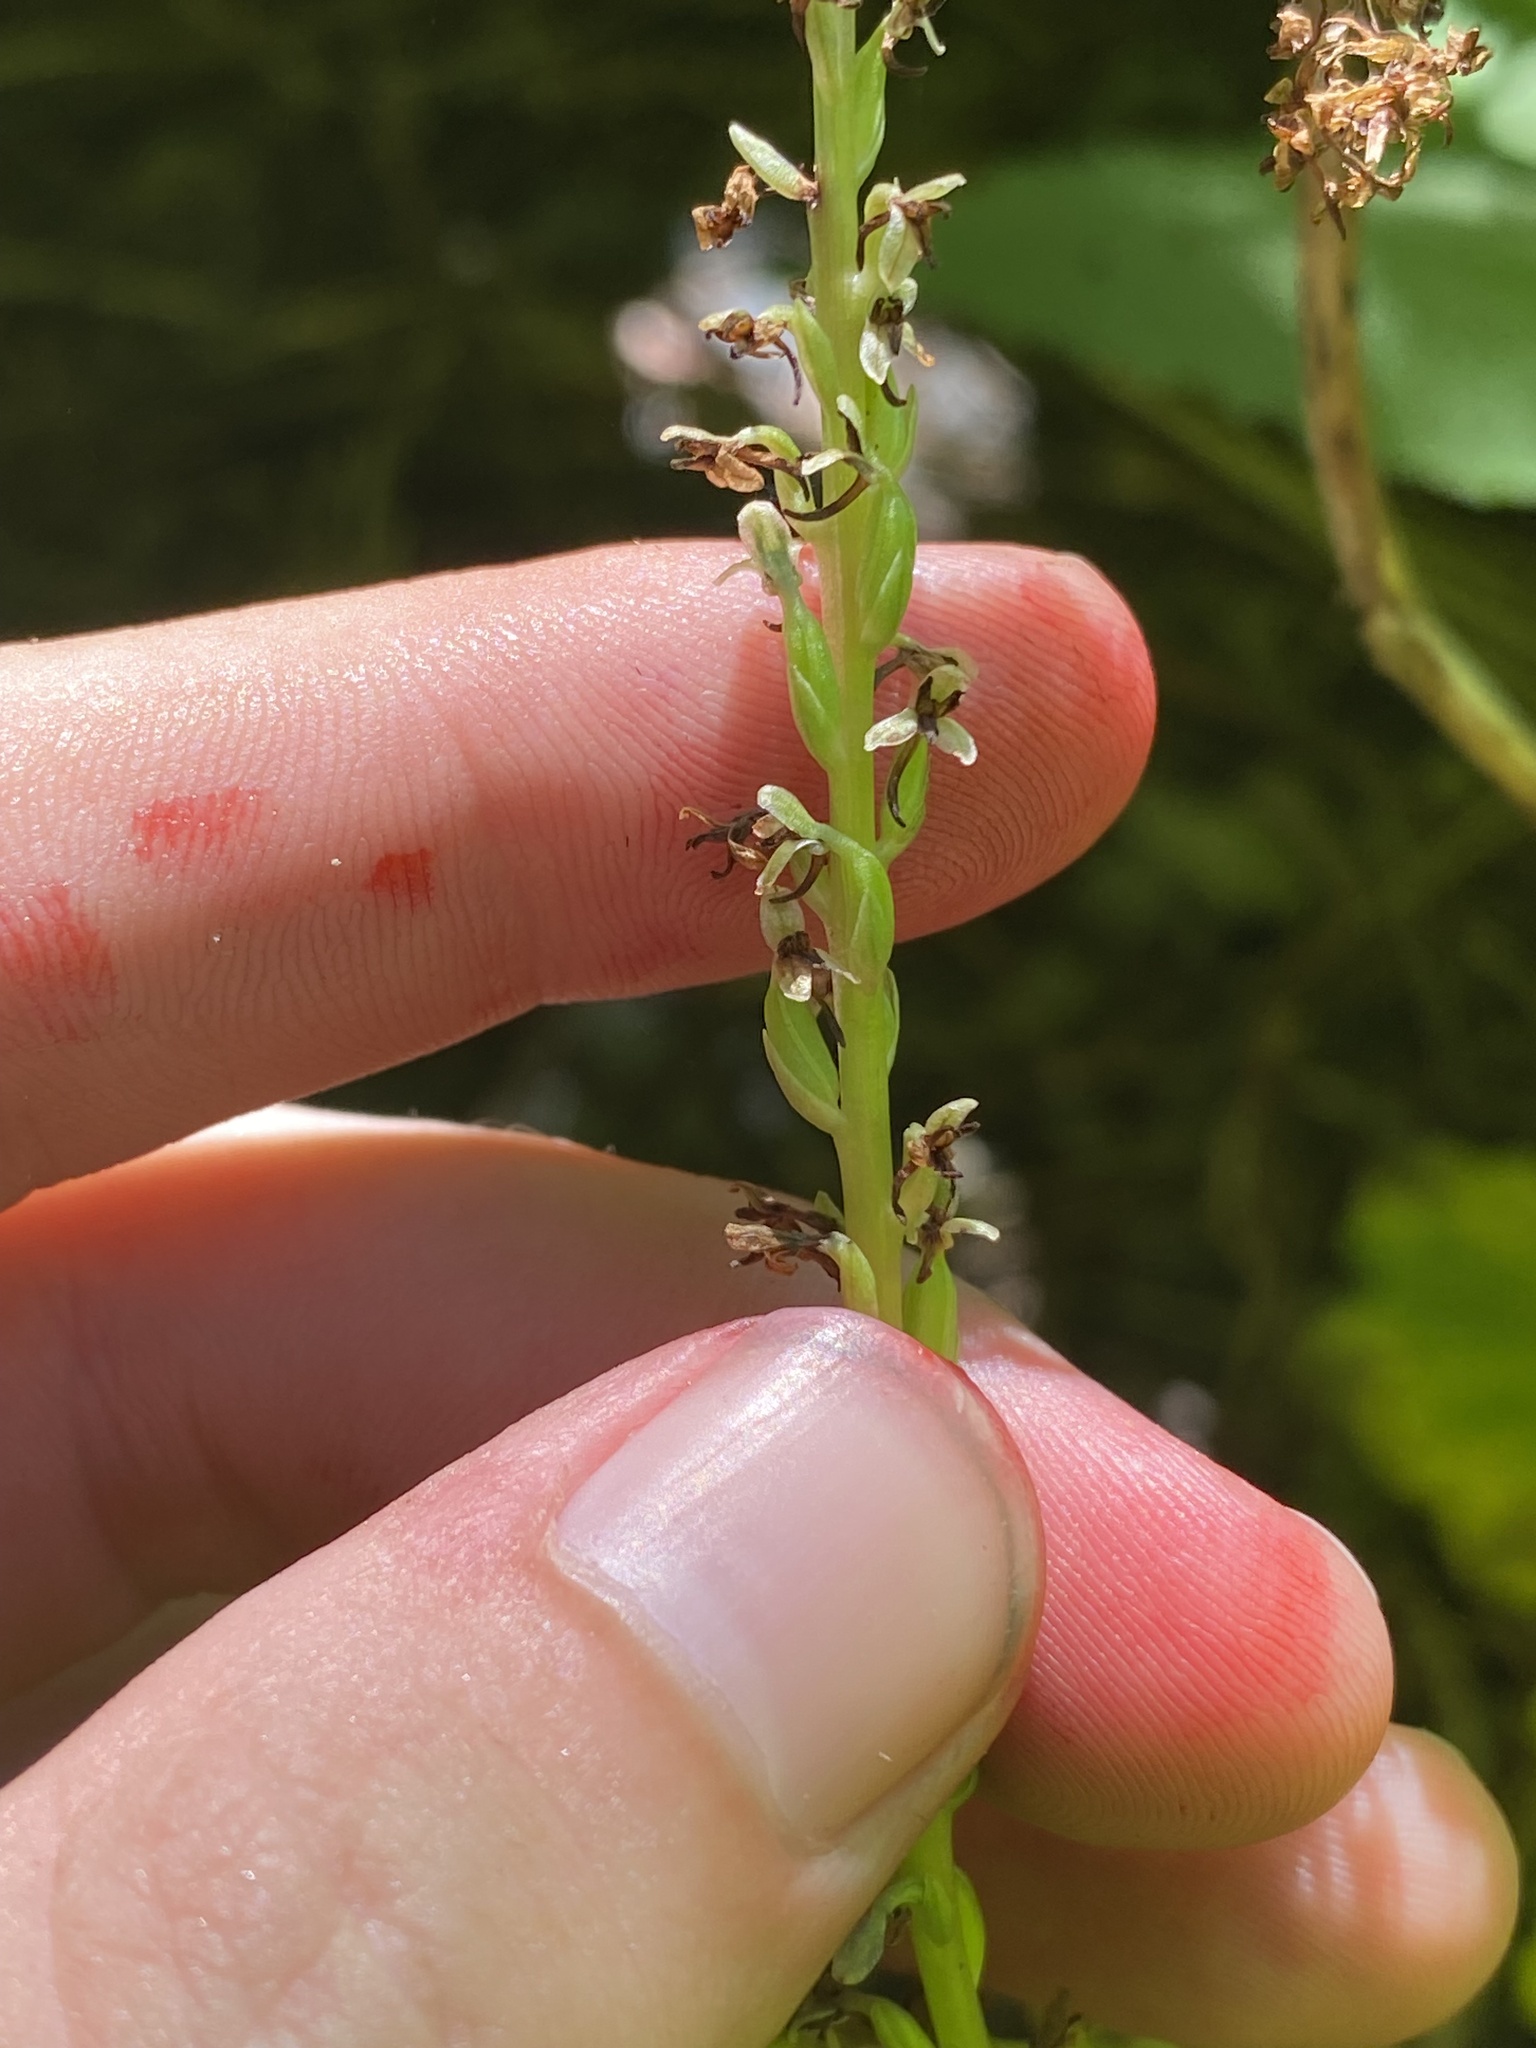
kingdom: Plantae
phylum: Tracheophyta
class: Liliopsida
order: Asparagales
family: Orchidaceae
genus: Platanthera
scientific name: Platanthera unalascensis
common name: Alaska bog orchid
